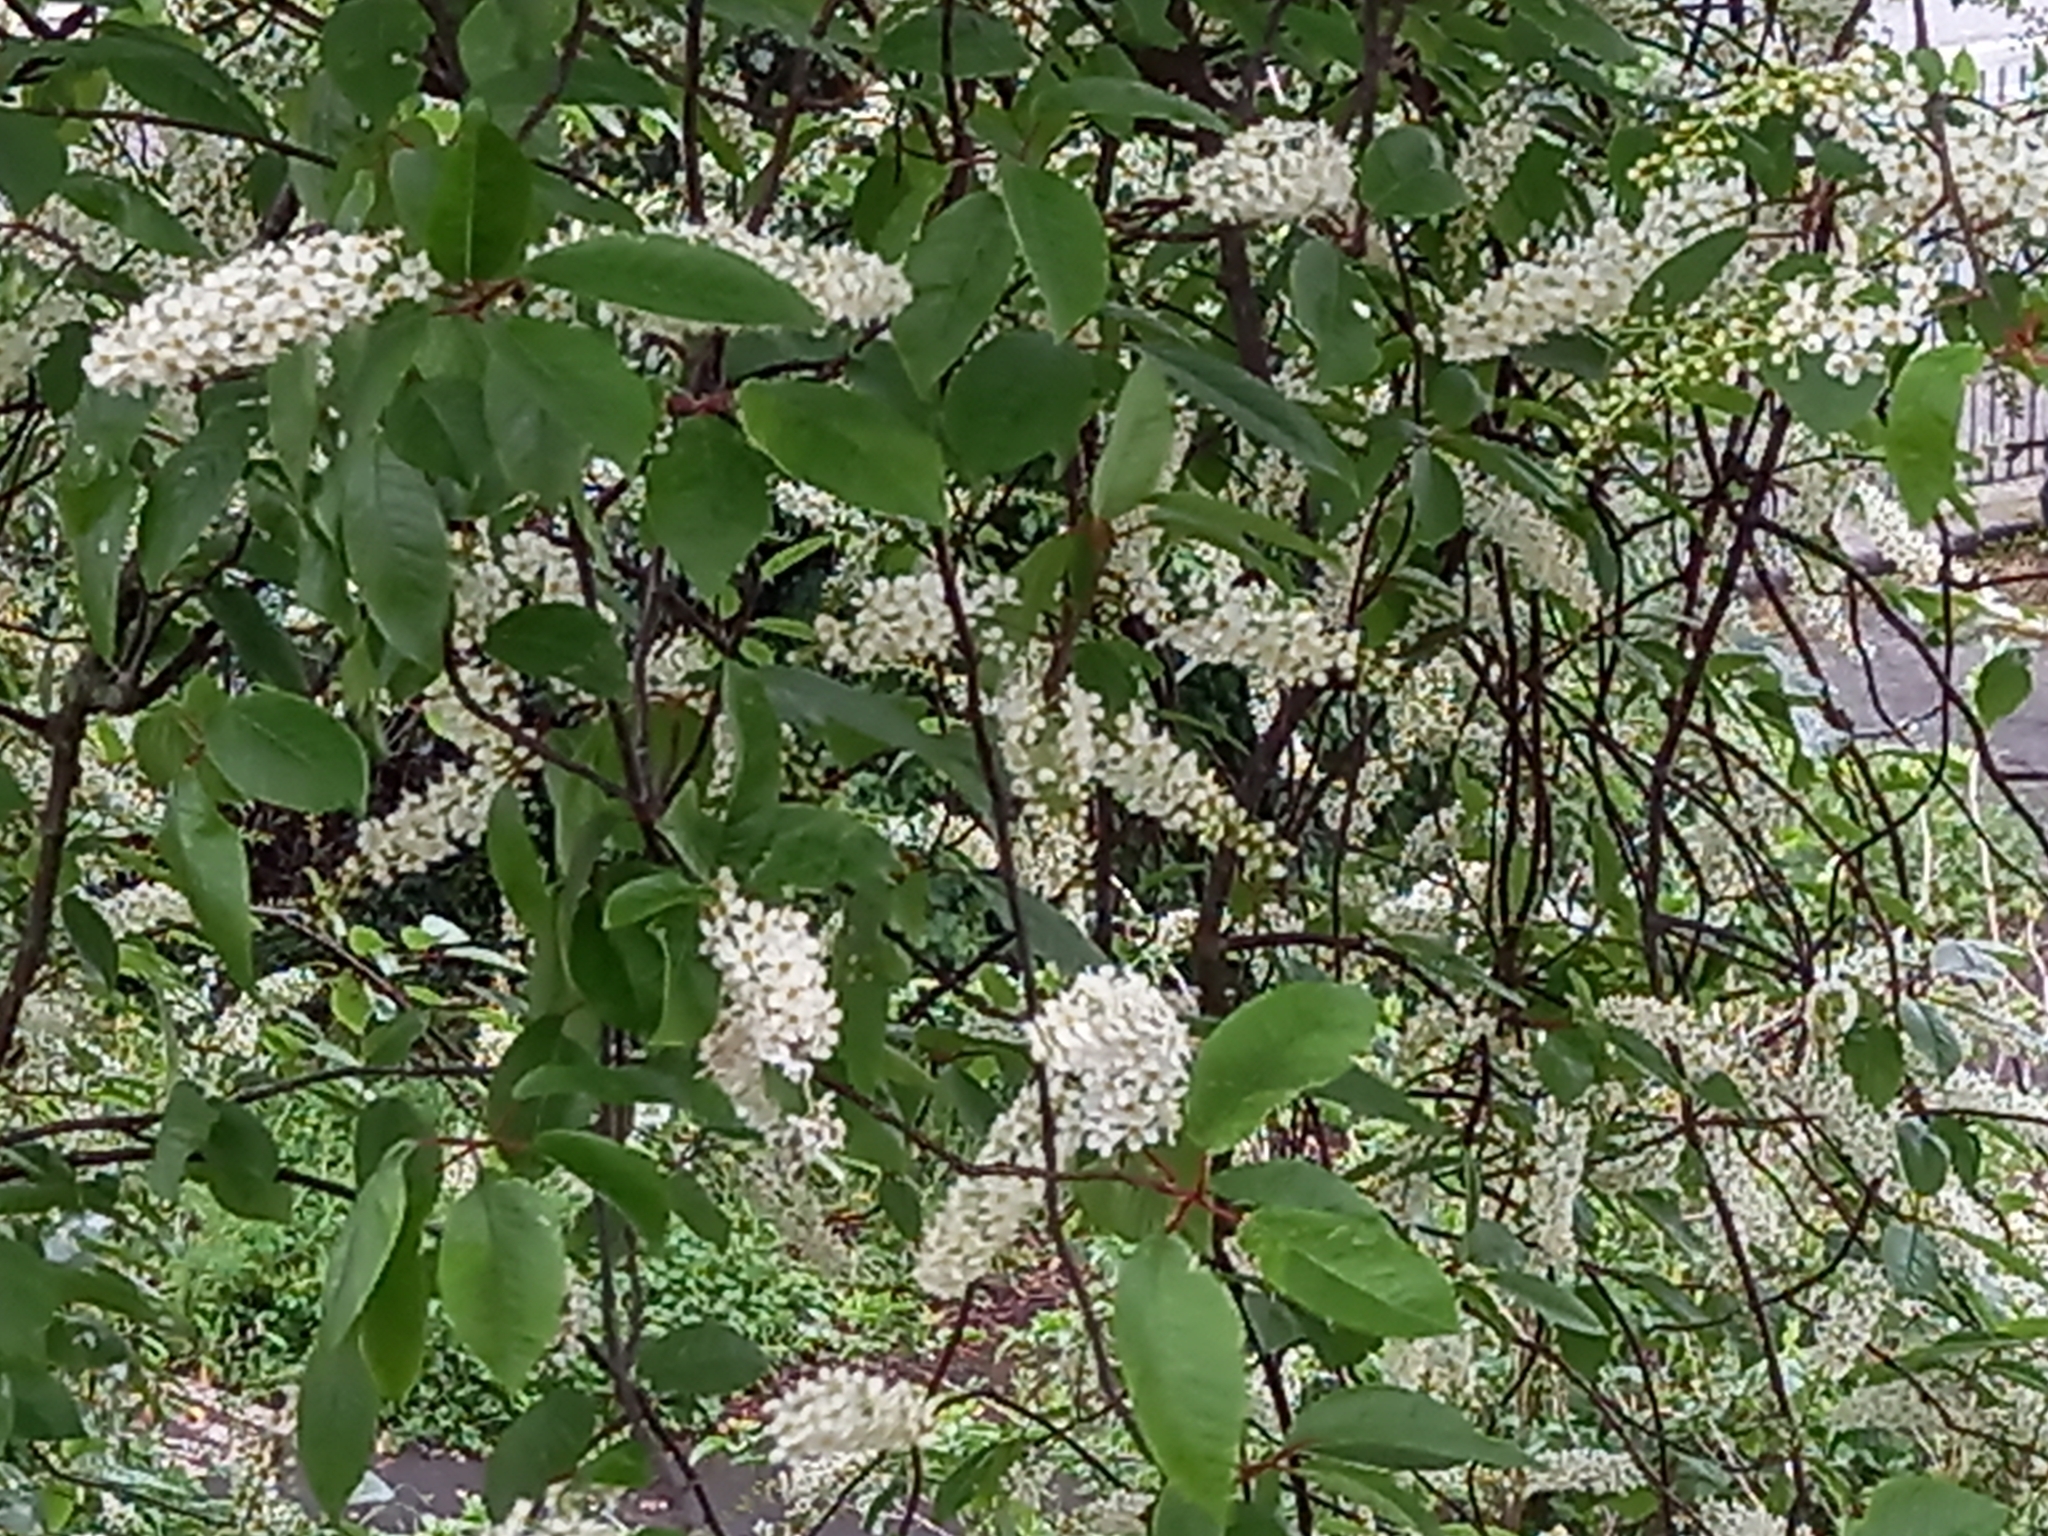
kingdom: Plantae
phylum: Tracheophyta
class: Magnoliopsida
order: Rosales
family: Rosaceae
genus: Prunus
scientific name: Prunus padus
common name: Bird cherry
